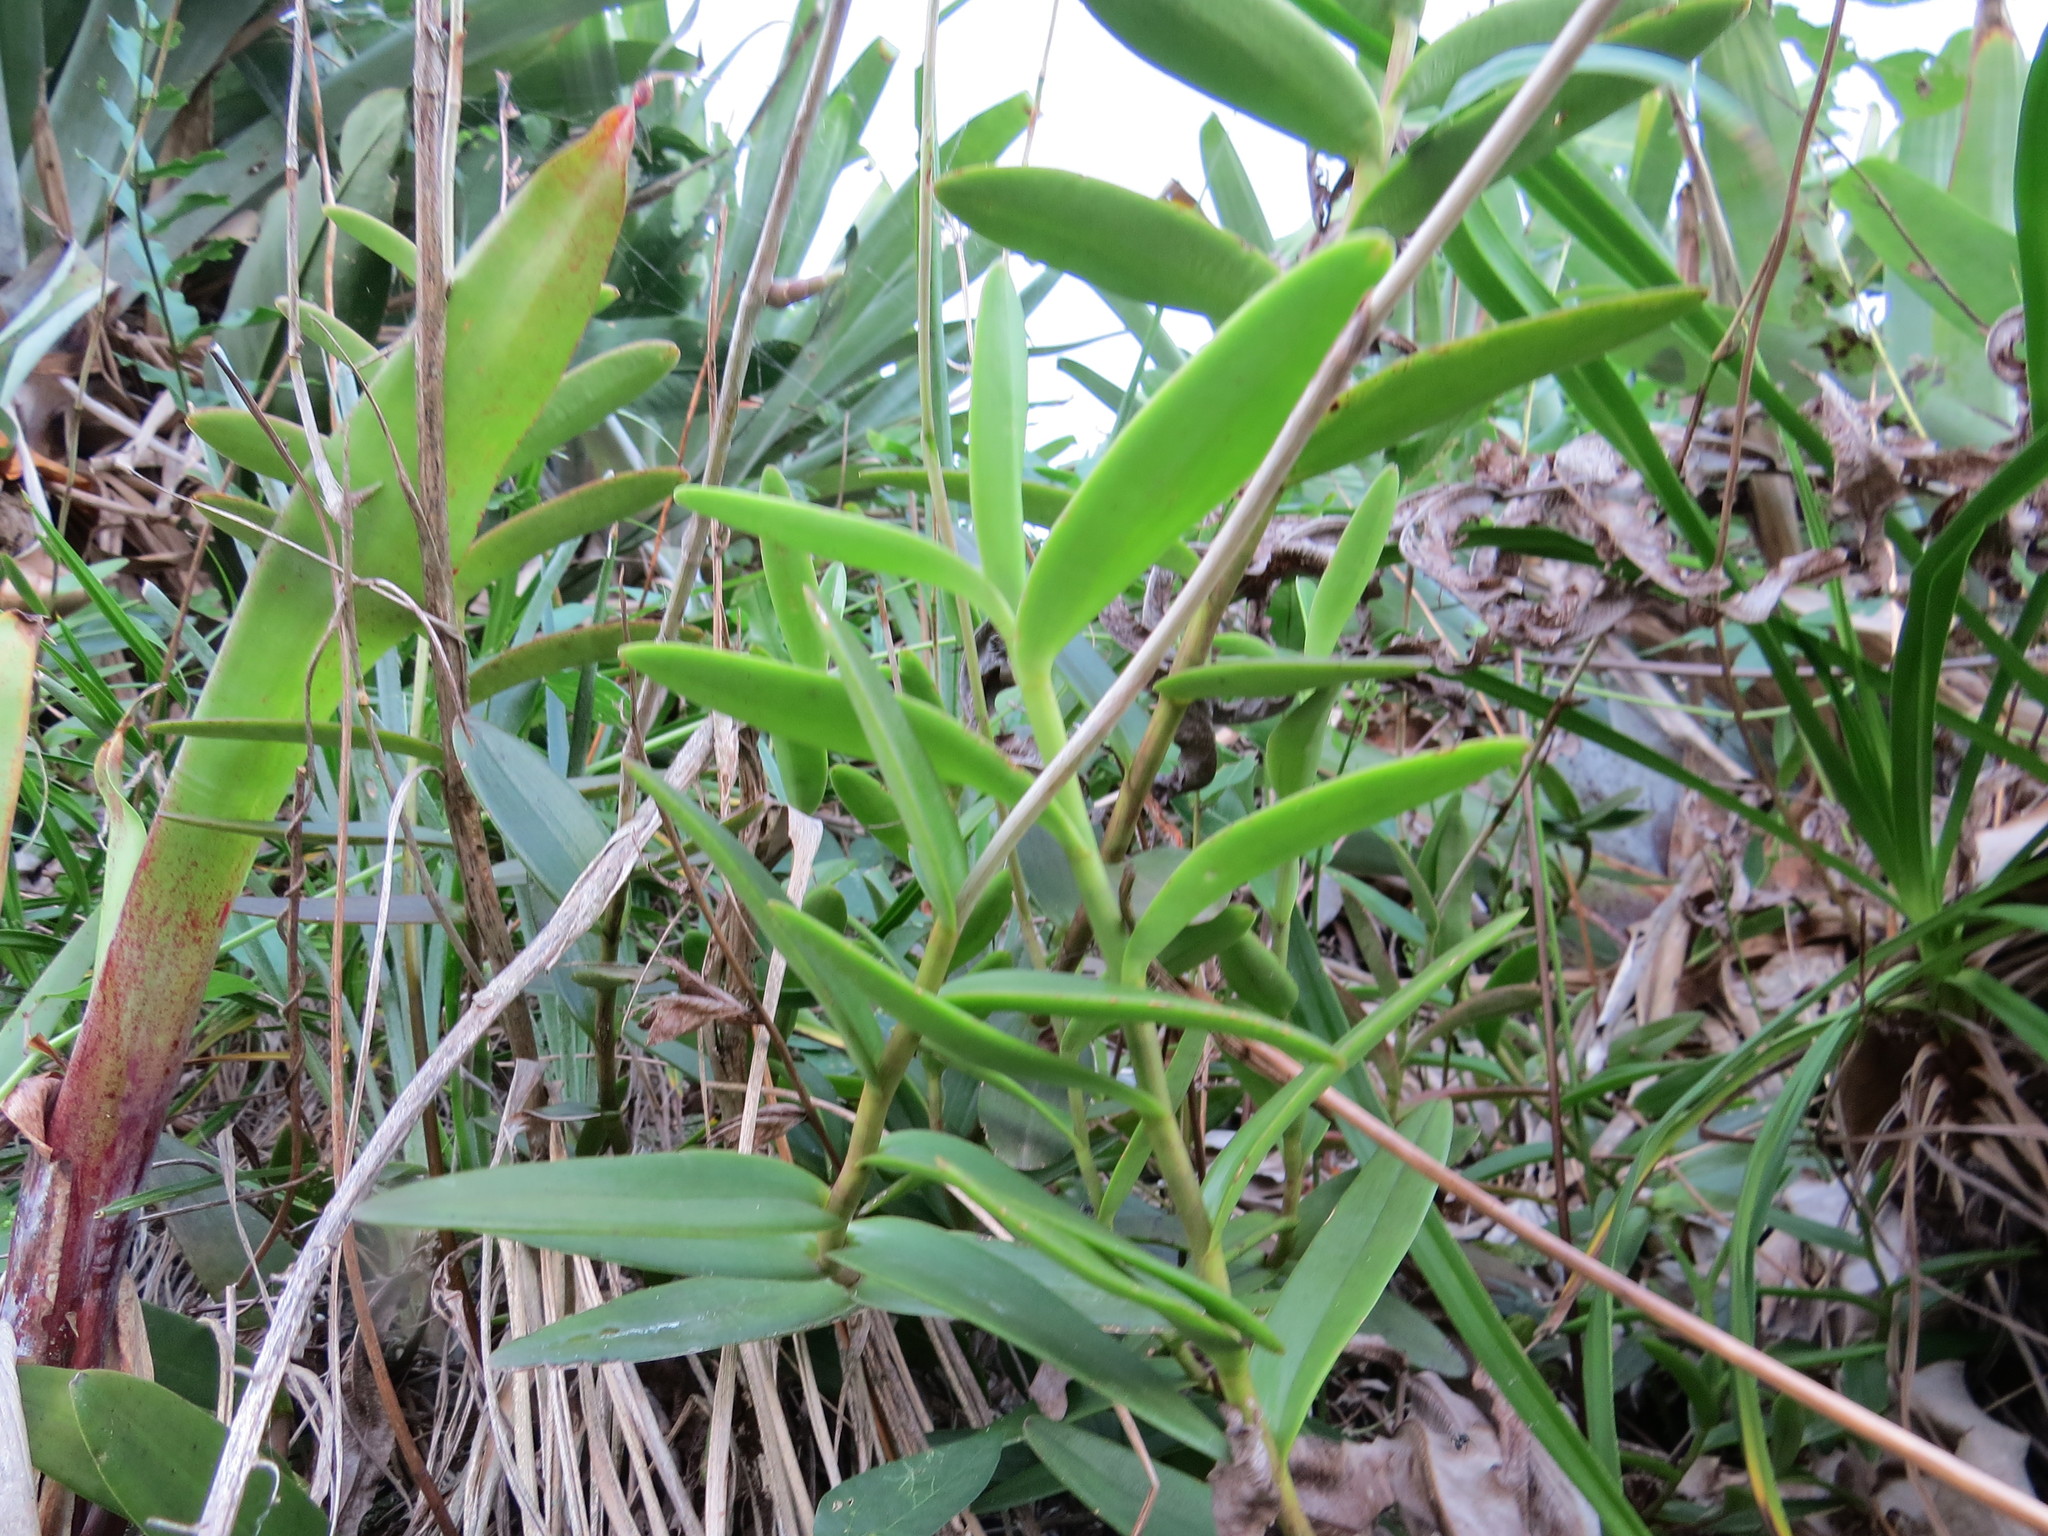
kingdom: Plantae
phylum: Tracheophyta
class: Liliopsida
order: Asparagales
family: Orchidaceae
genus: Epidendrum
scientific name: Epidendrum denticulatum
